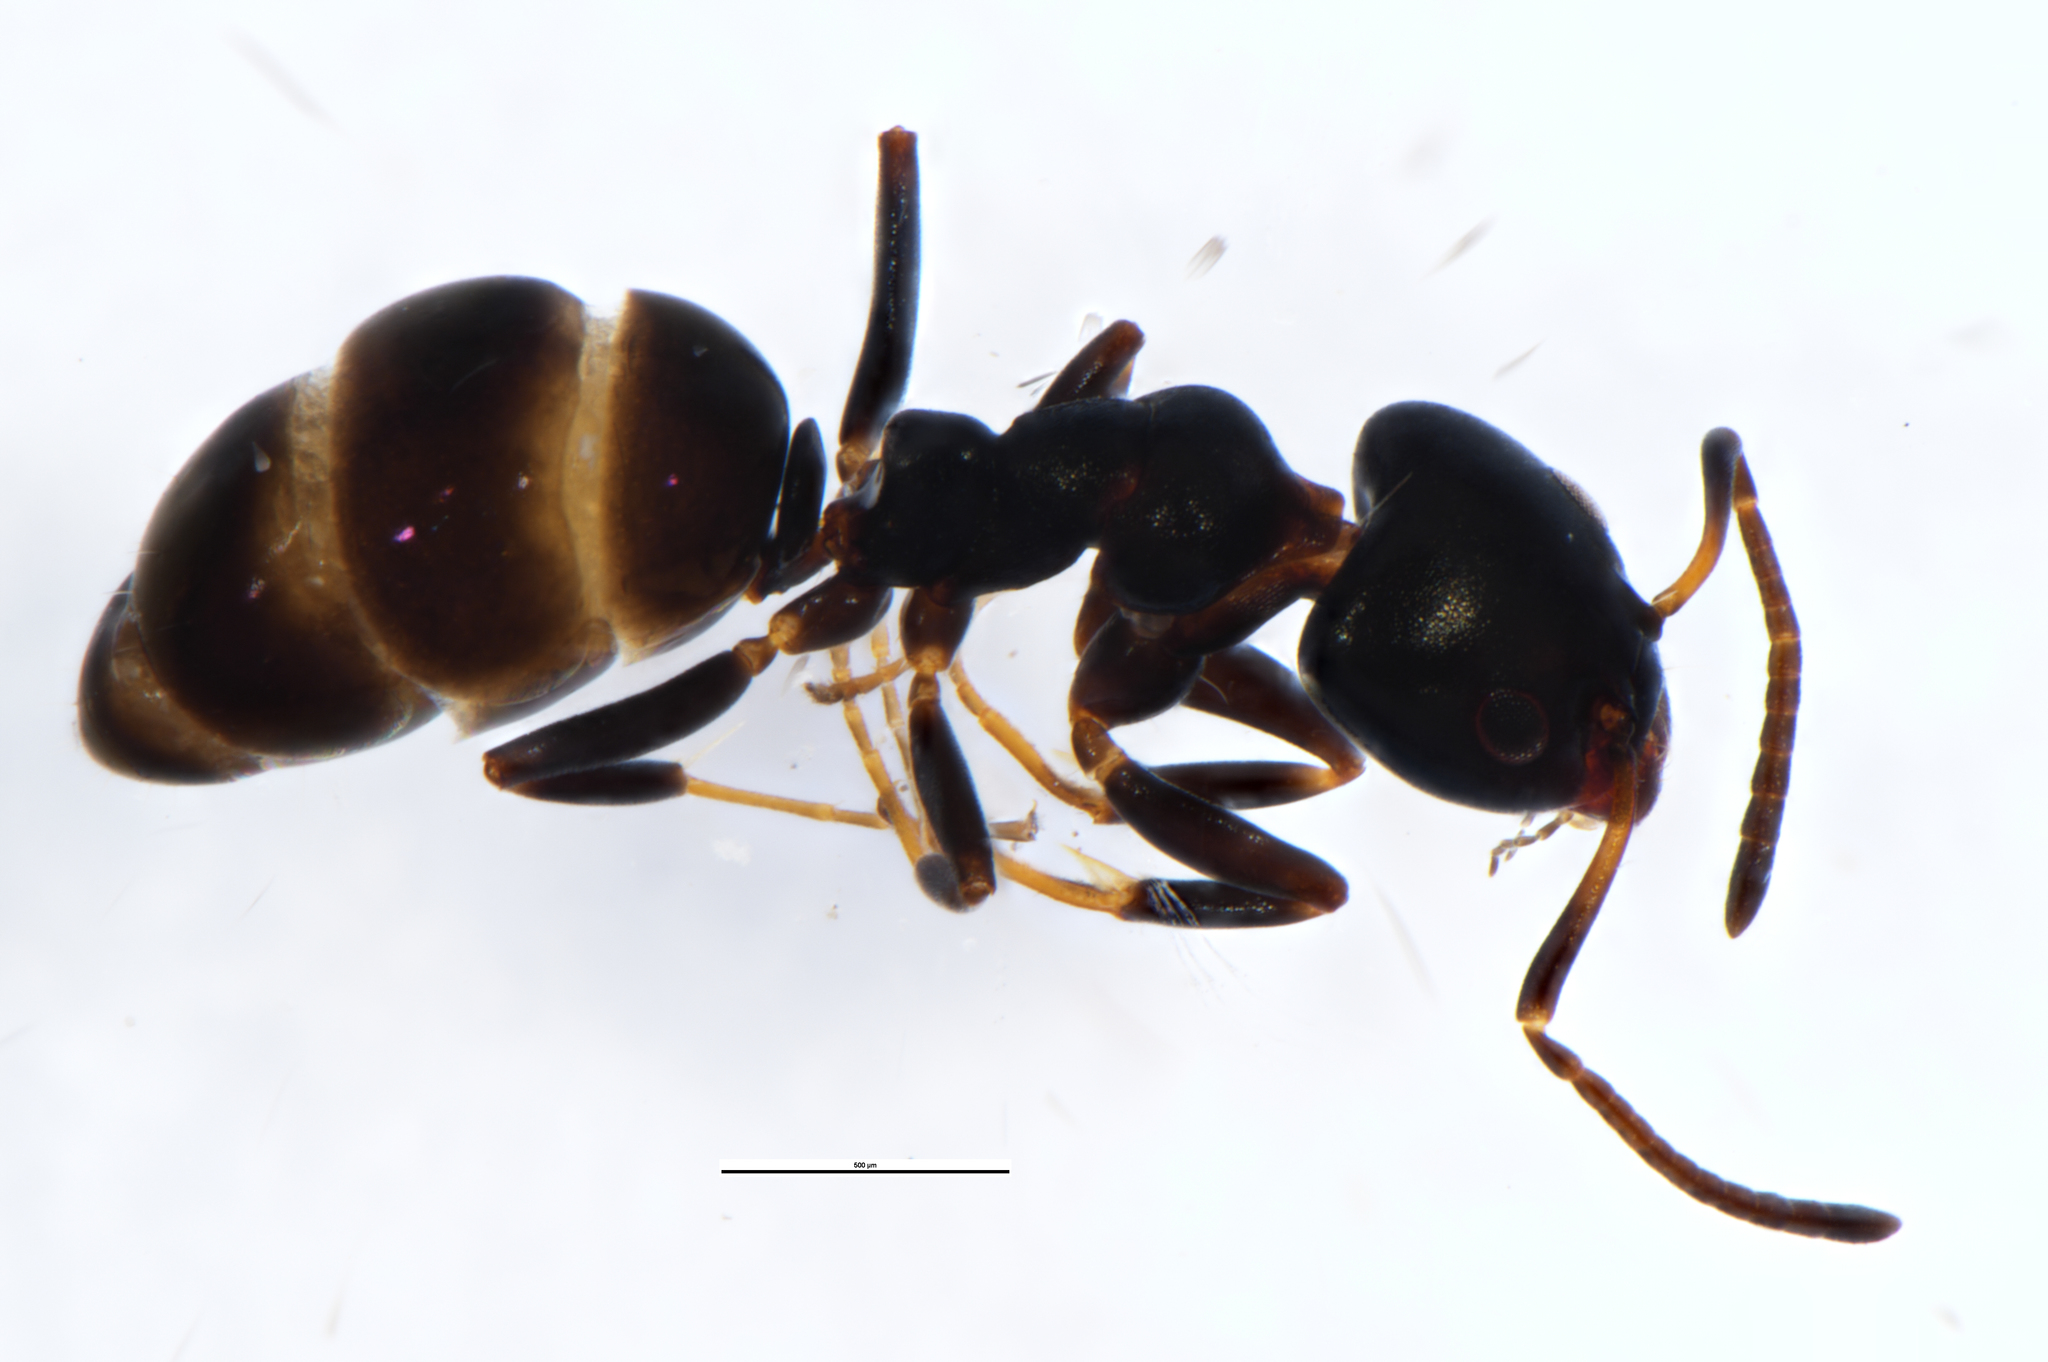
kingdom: Animalia
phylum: Arthropoda
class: Insecta
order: Hymenoptera
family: Formicidae
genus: Ochetellus
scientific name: Ochetellus glaber
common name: Ant
